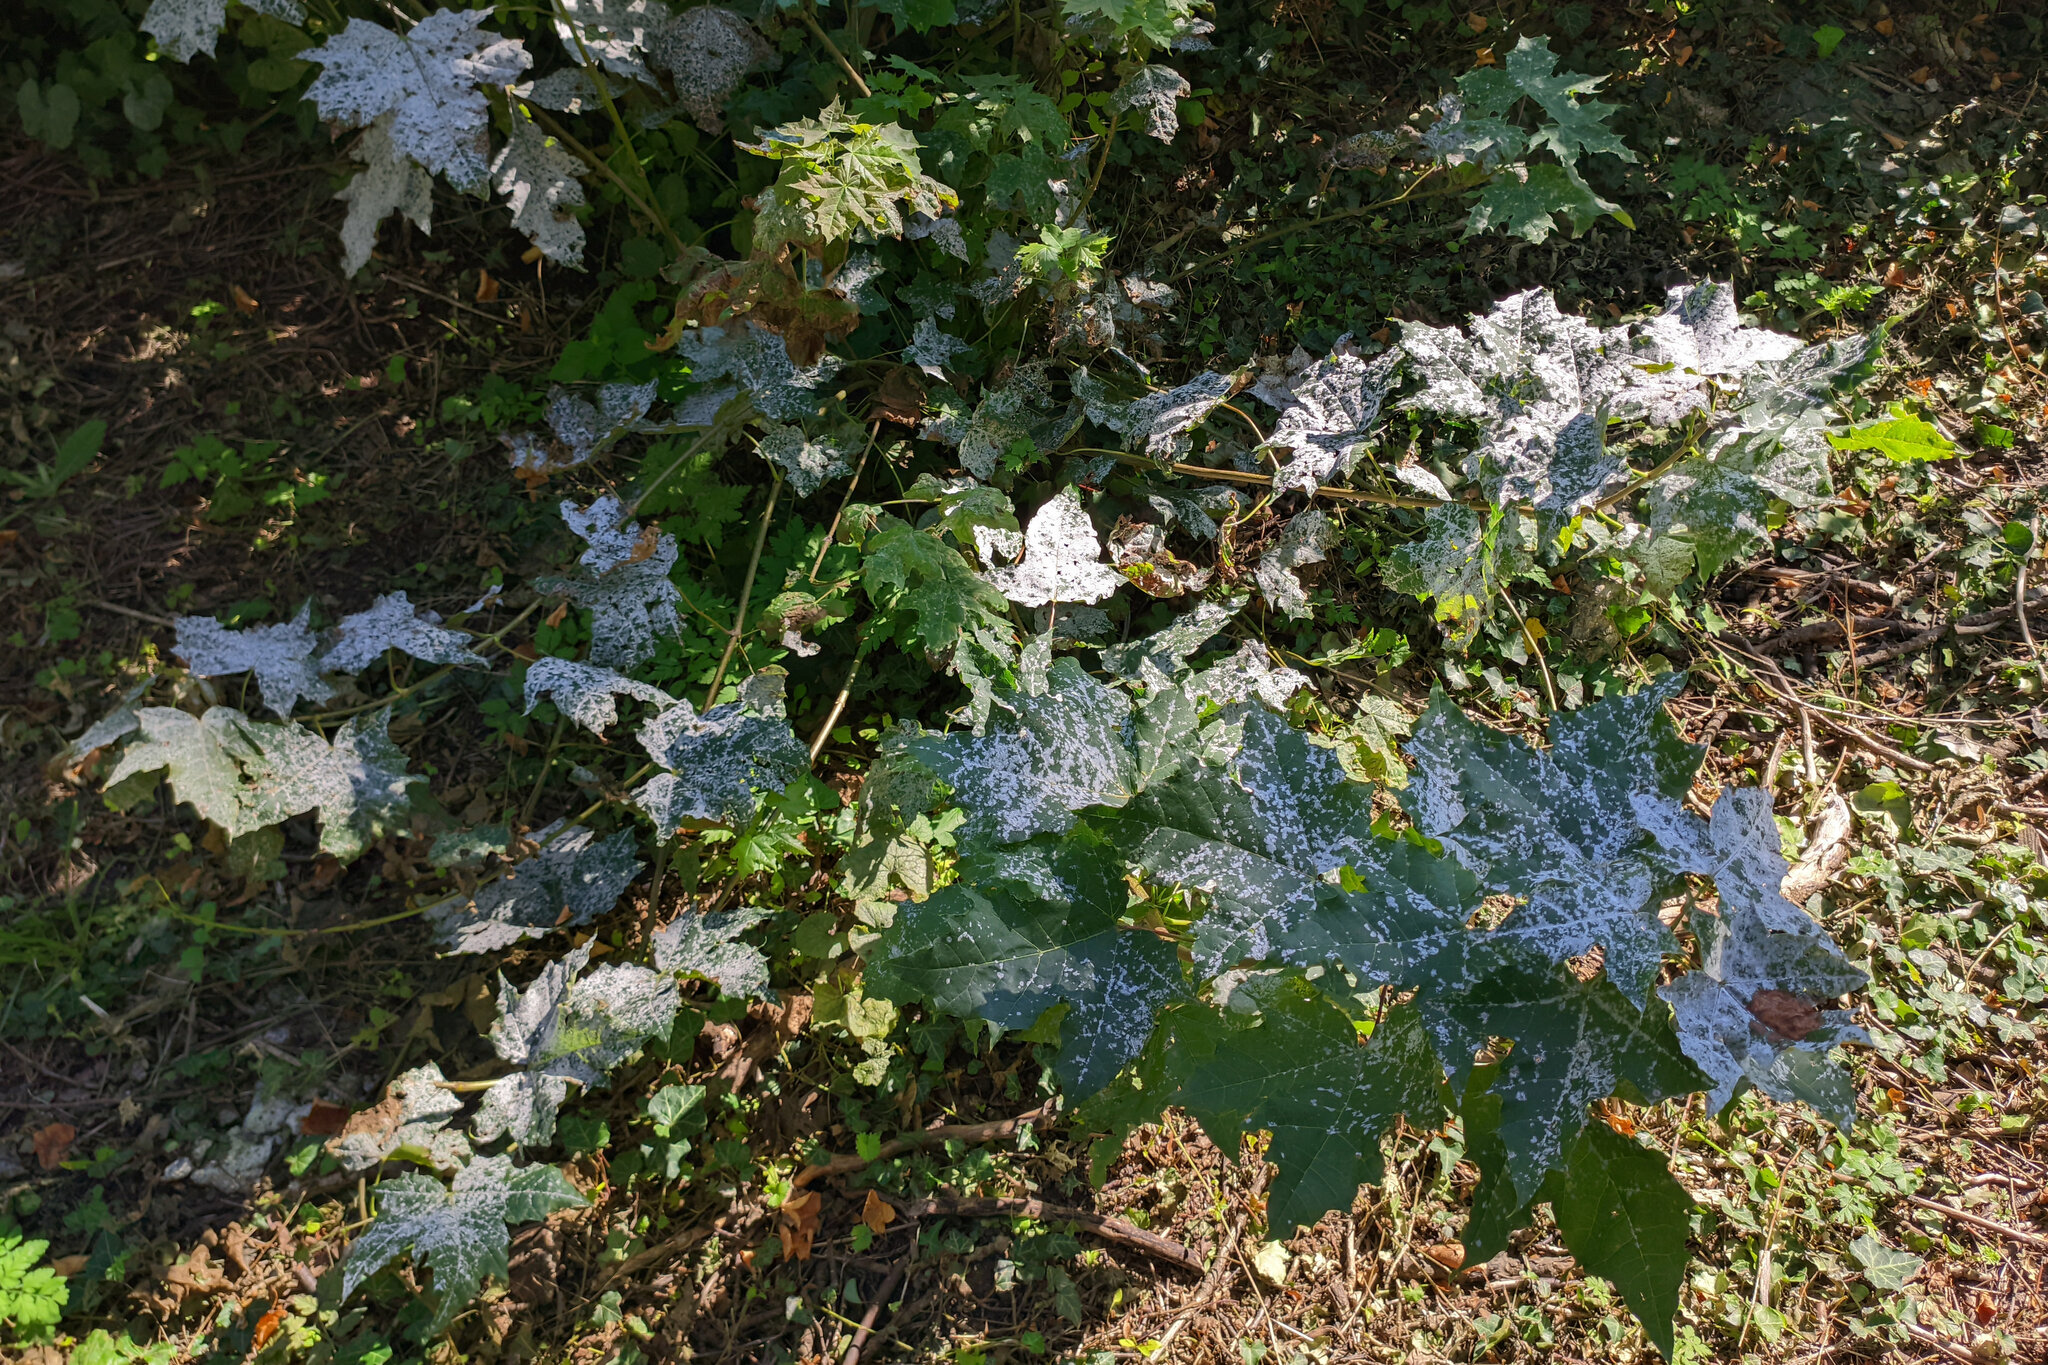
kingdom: Fungi
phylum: Ascomycota
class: Leotiomycetes
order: Helotiales
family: Erysiphaceae
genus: Sawadaea
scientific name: Sawadaea tulasnei
